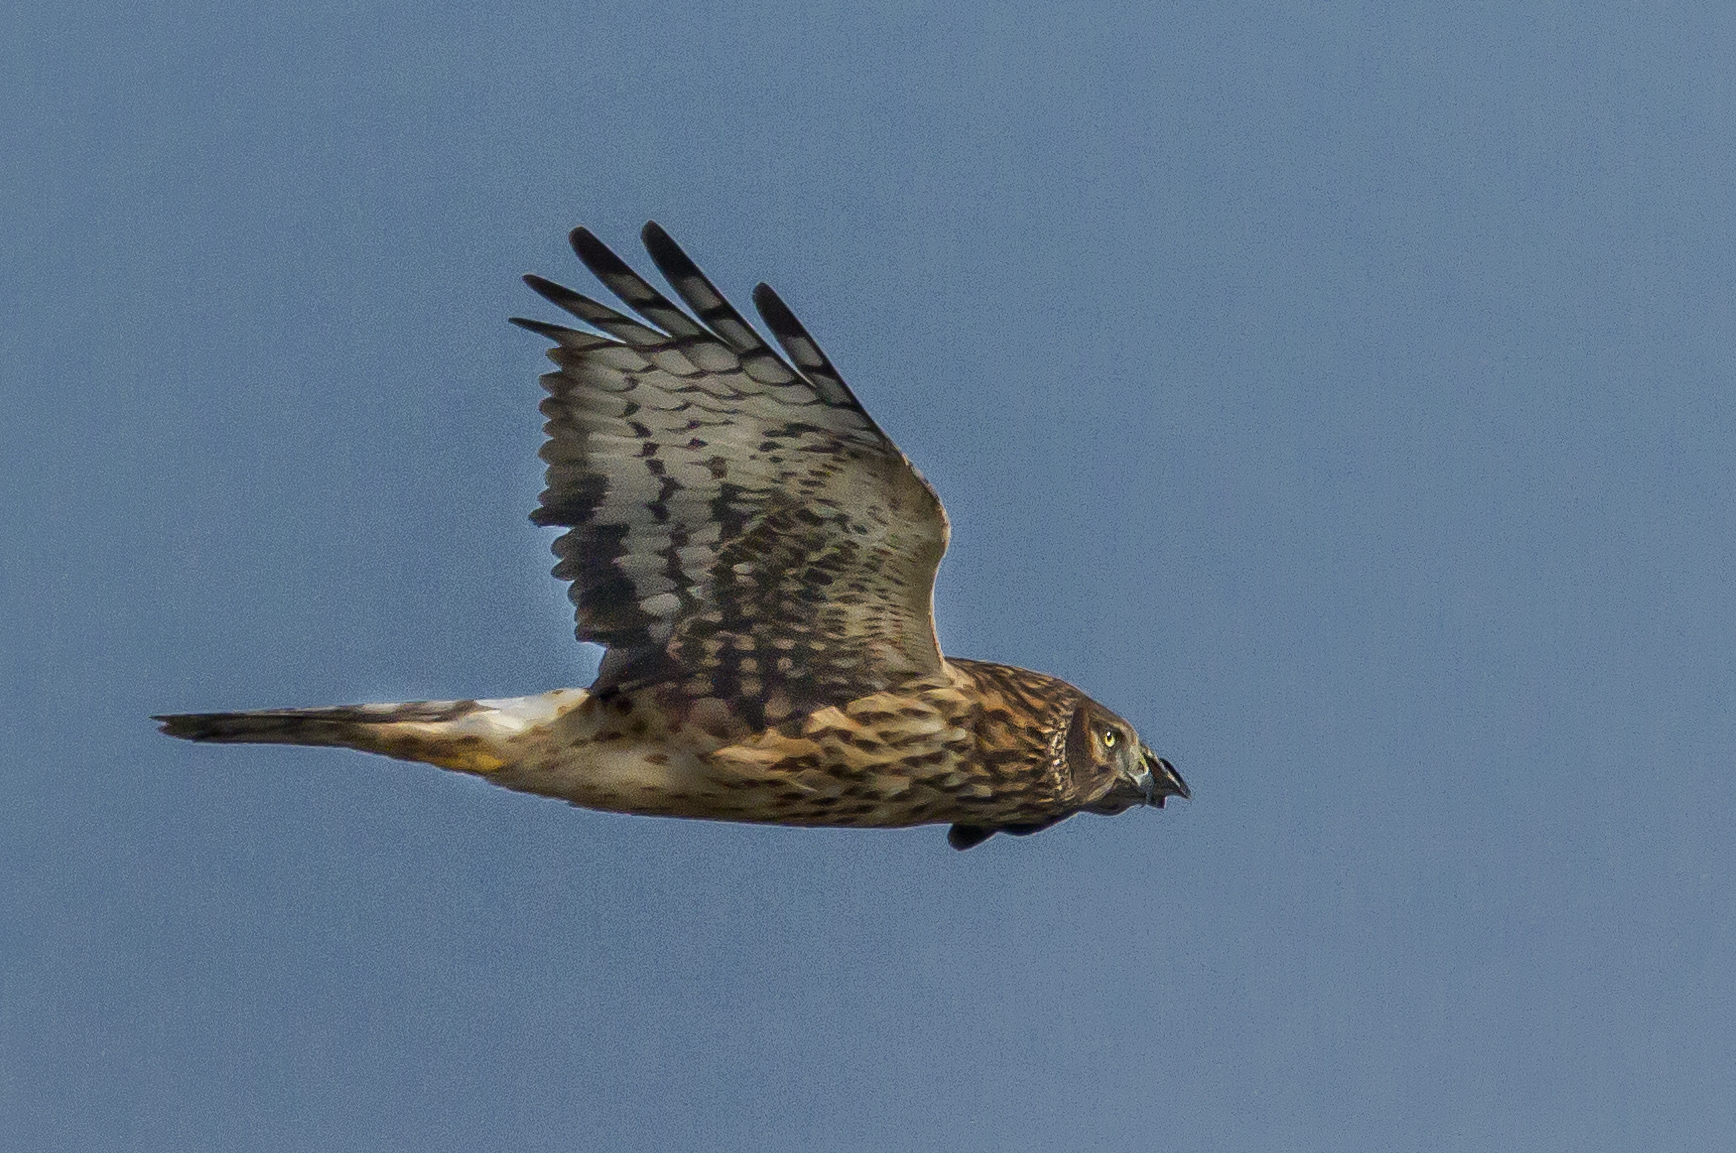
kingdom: Animalia
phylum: Chordata
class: Aves
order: Accipitriformes
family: Accipitridae
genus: Circus
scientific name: Circus cyaneus
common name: Hen harrier
